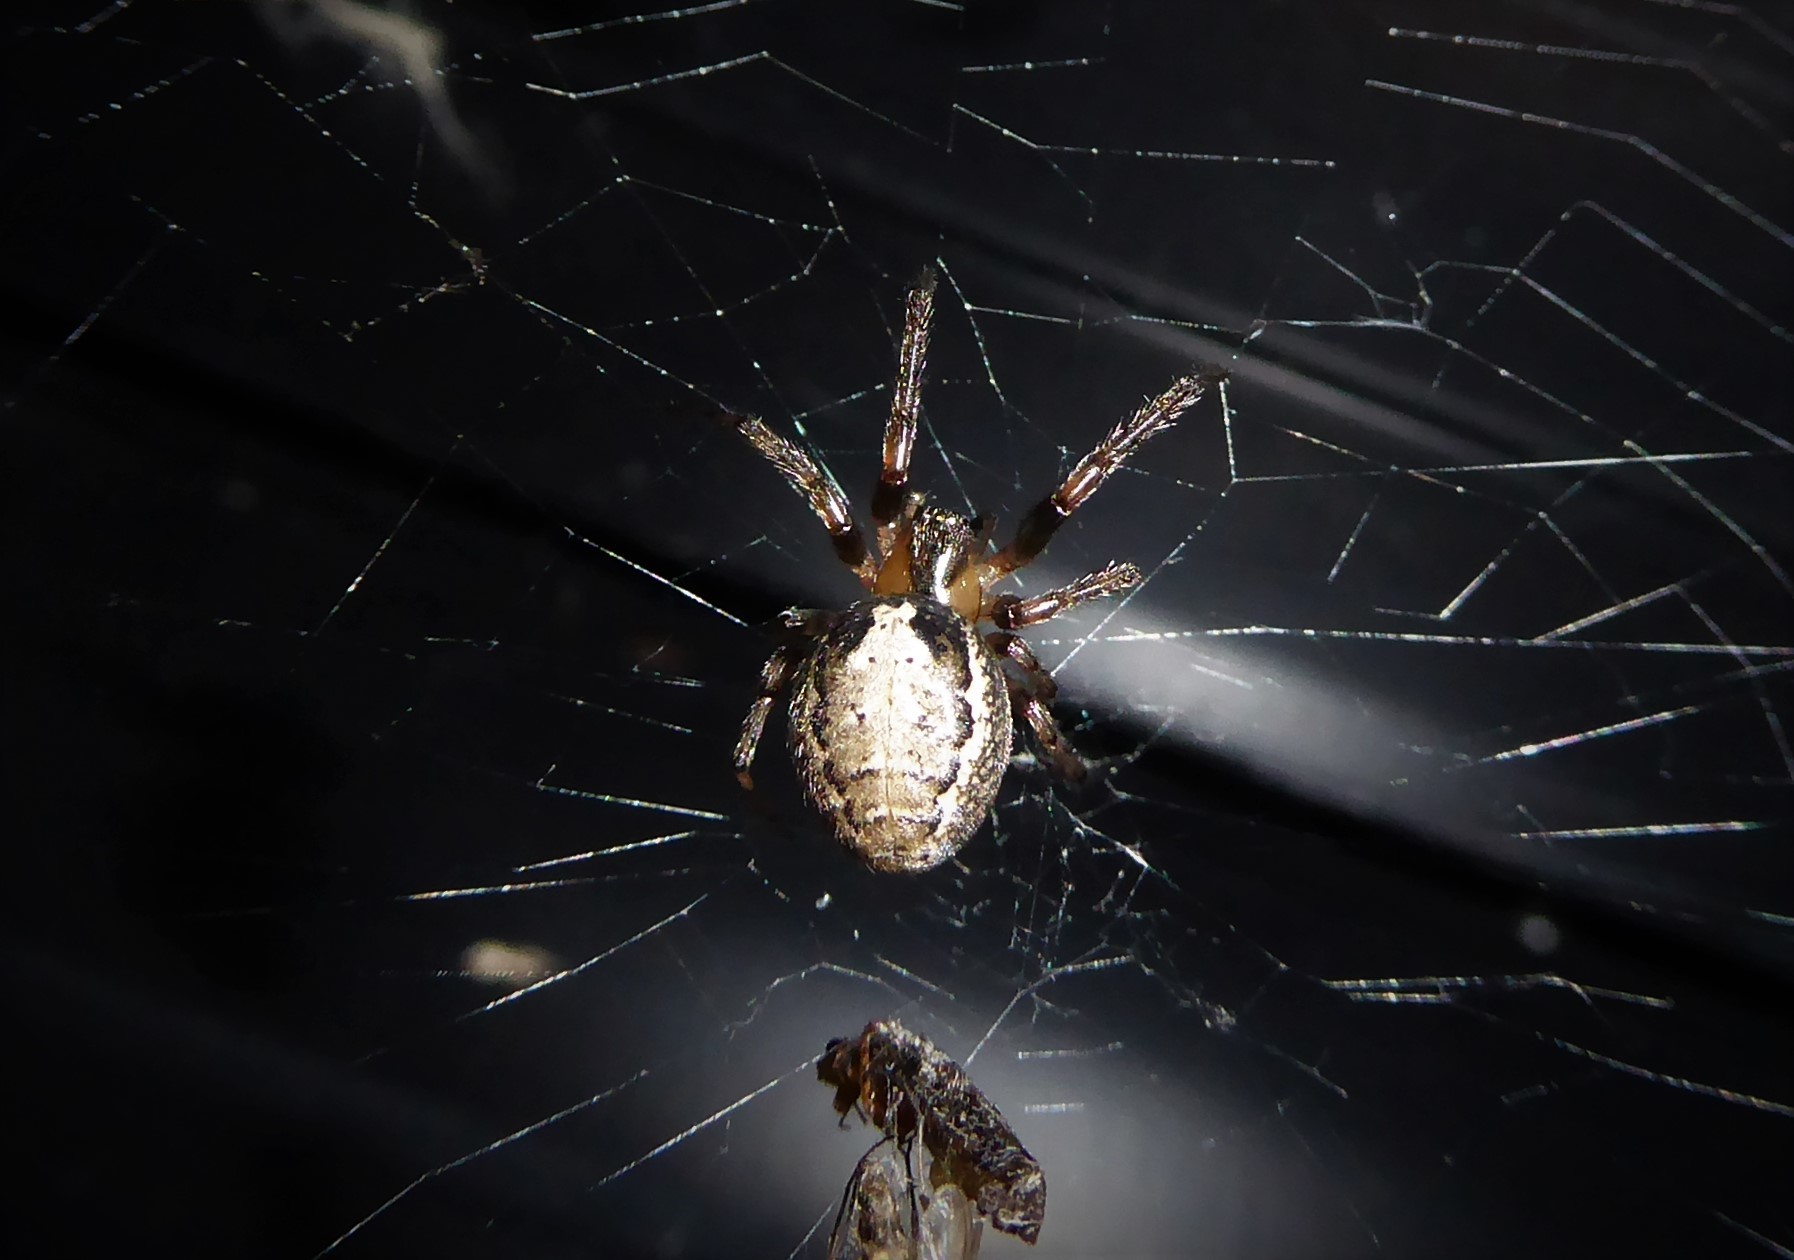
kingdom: Animalia
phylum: Arthropoda
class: Arachnida
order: Araneae
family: Araneidae
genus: Zygiella
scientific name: Zygiella x-notata
